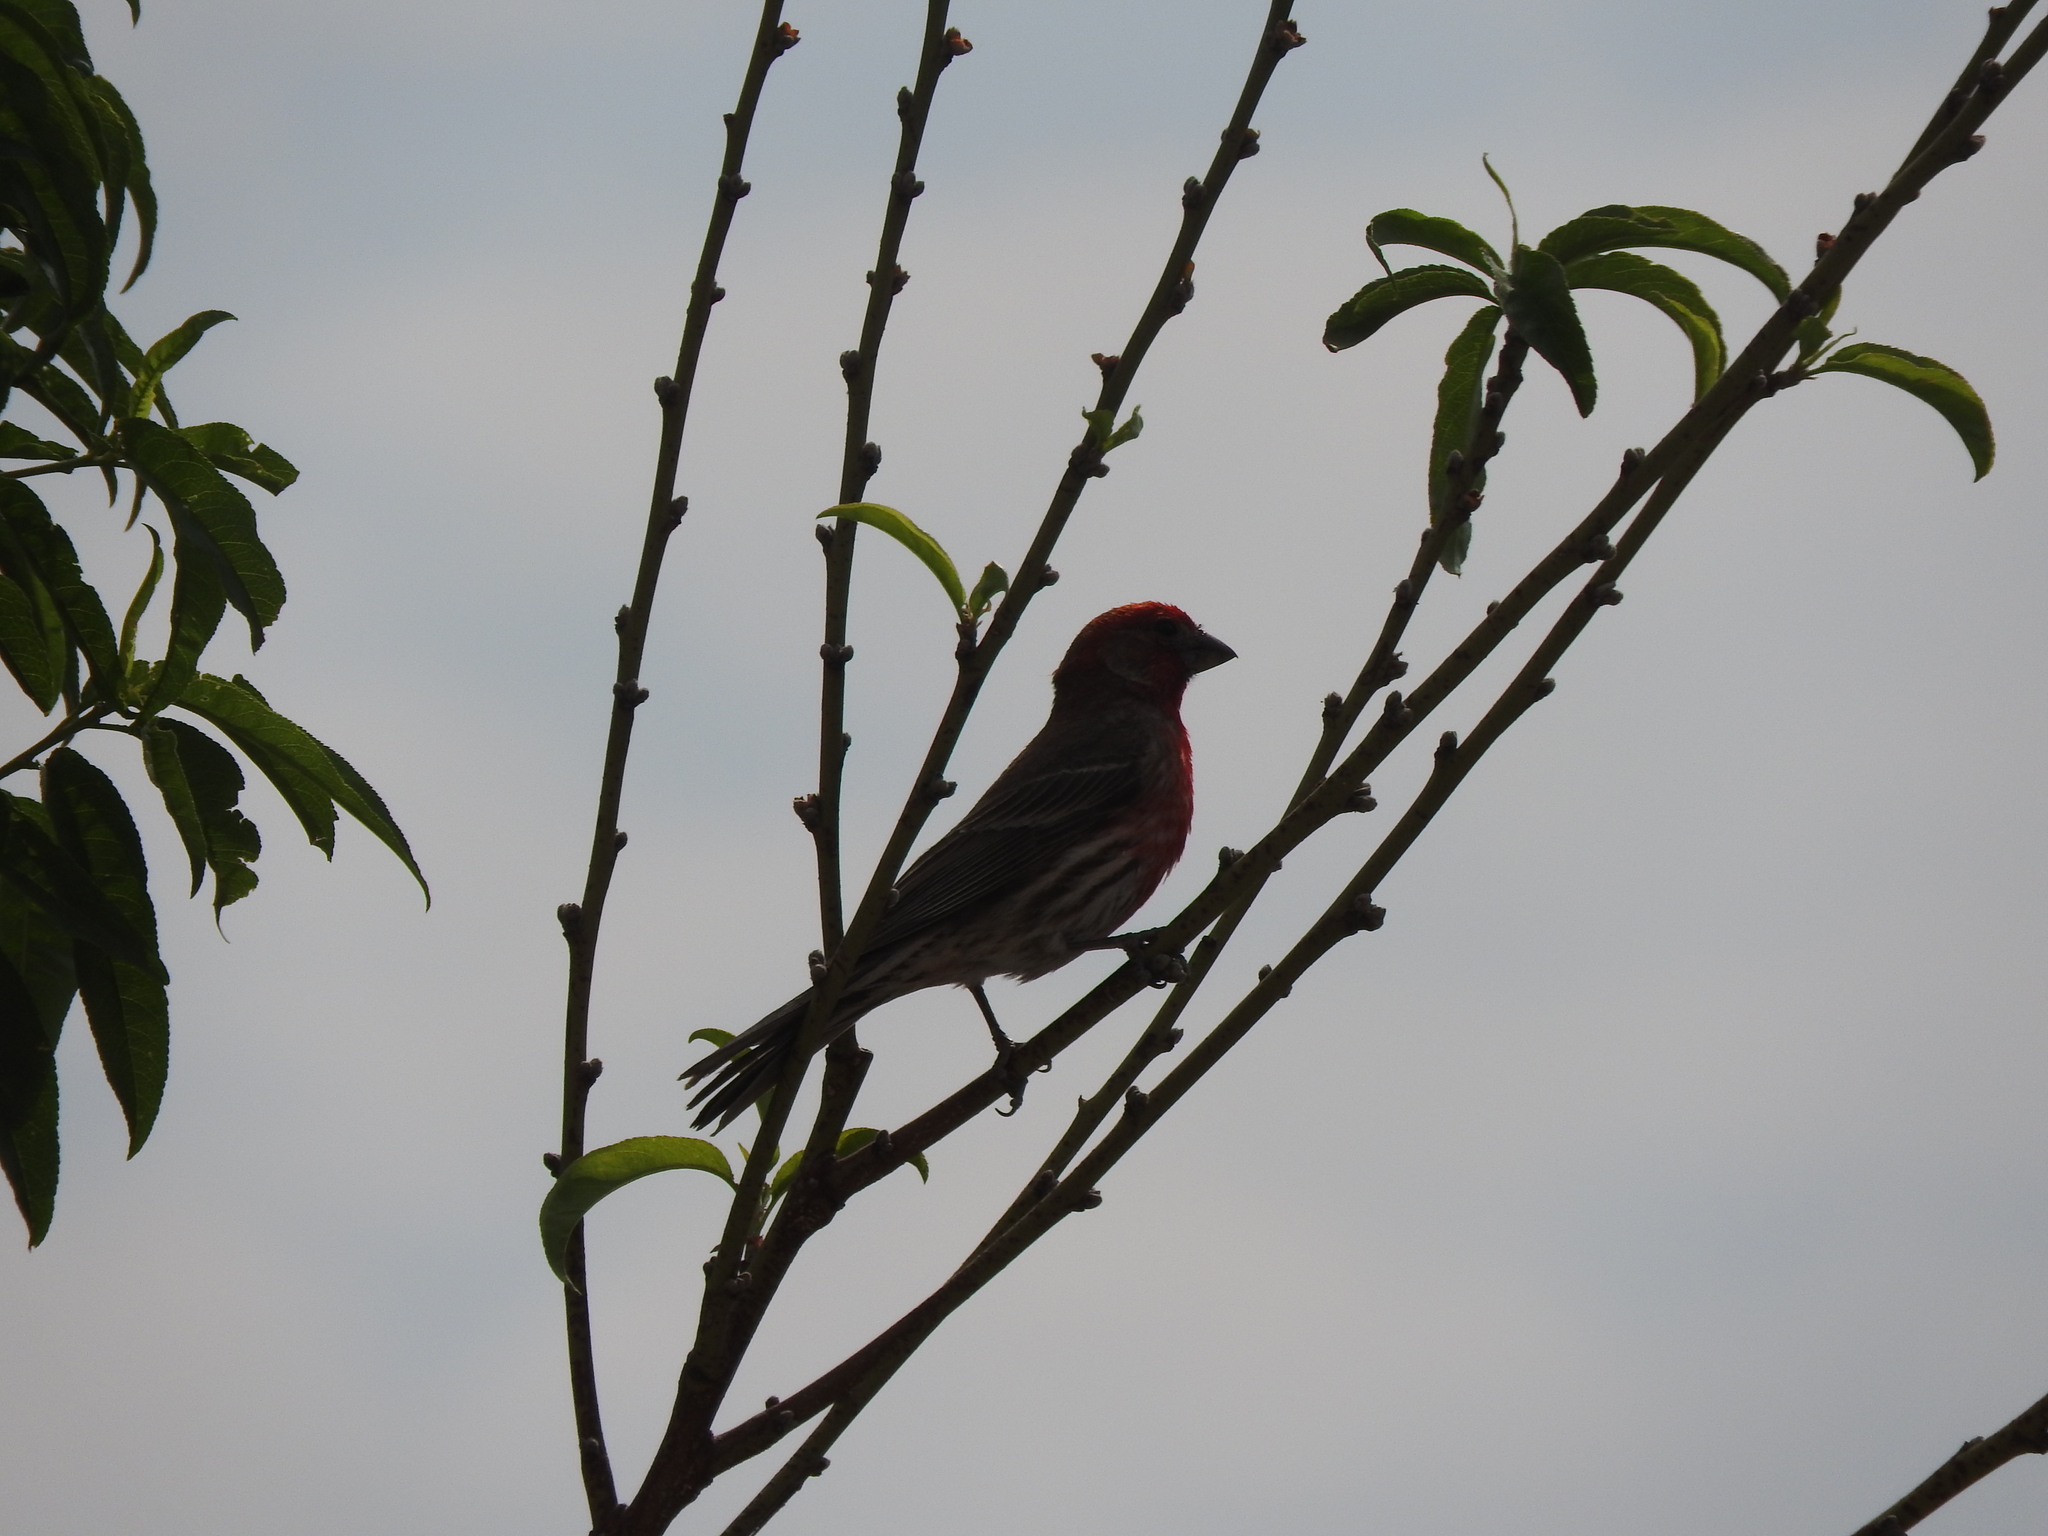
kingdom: Animalia
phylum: Chordata
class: Aves
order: Passeriformes
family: Fringillidae
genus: Haemorhous
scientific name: Haemorhous mexicanus
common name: House finch
